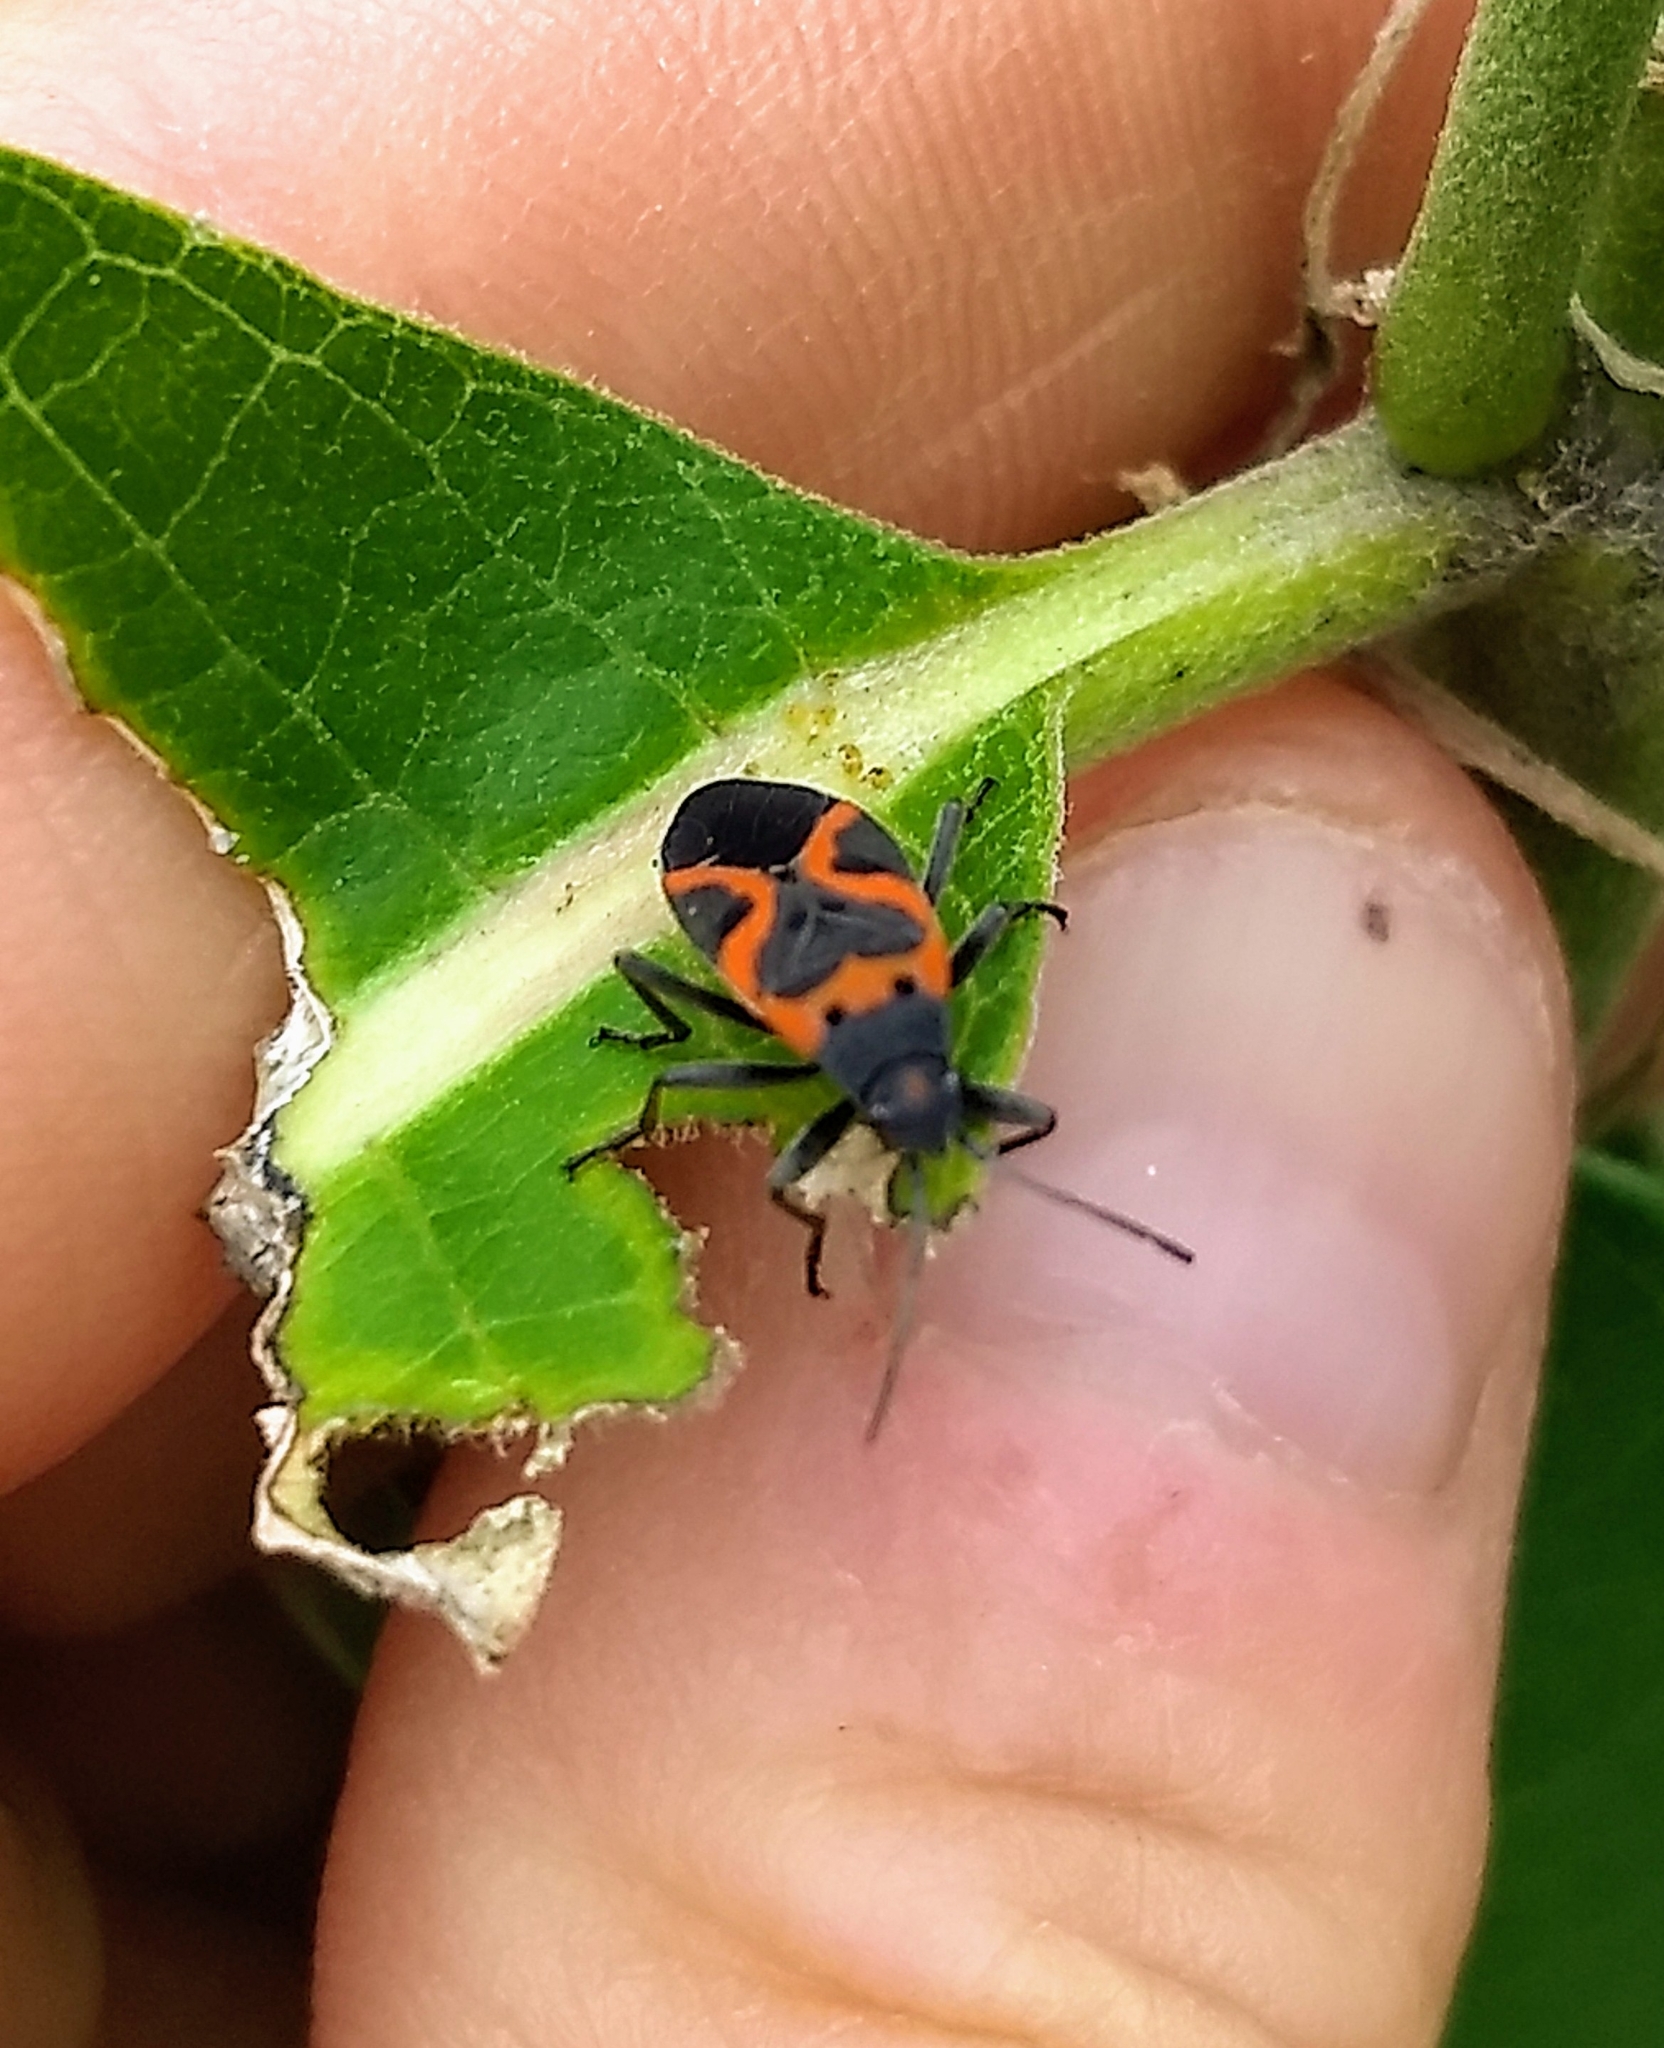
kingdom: Animalia
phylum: Arthropoda
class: Insecta
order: Hemiptera
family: Lygaeidae
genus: Lygaeus
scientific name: Lygaeus kalmii
